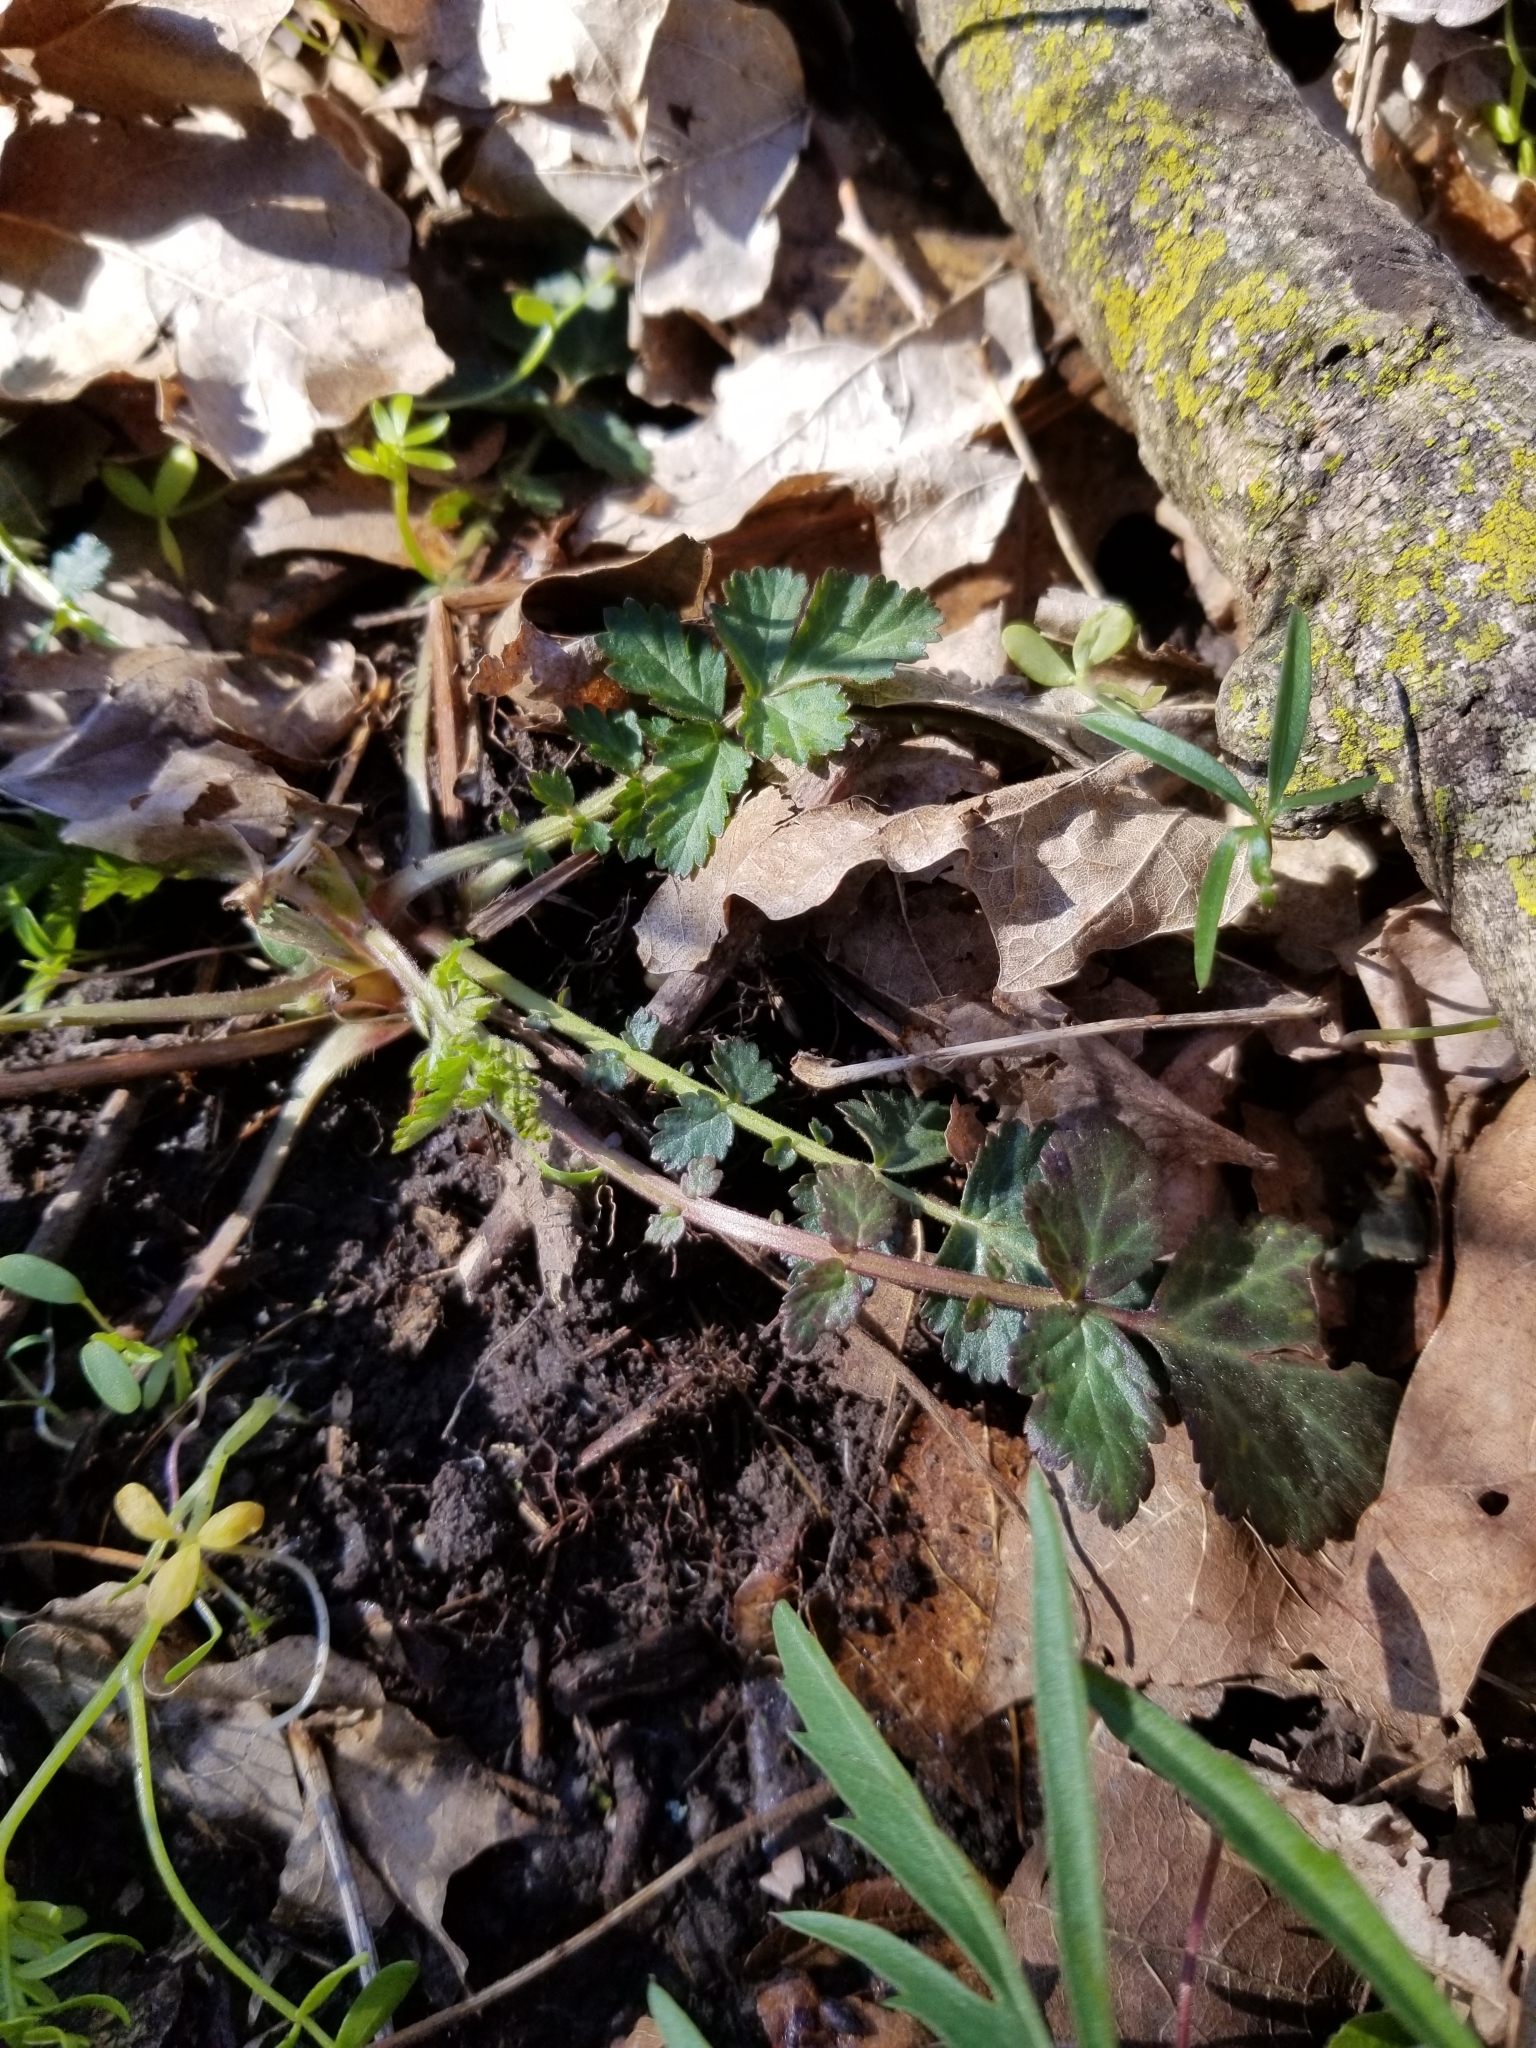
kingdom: Plantae
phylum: Tracheophyta
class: Magnoliopsida
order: Rosales
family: Rosaceae
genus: Geum
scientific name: Geum canadense
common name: White avens
